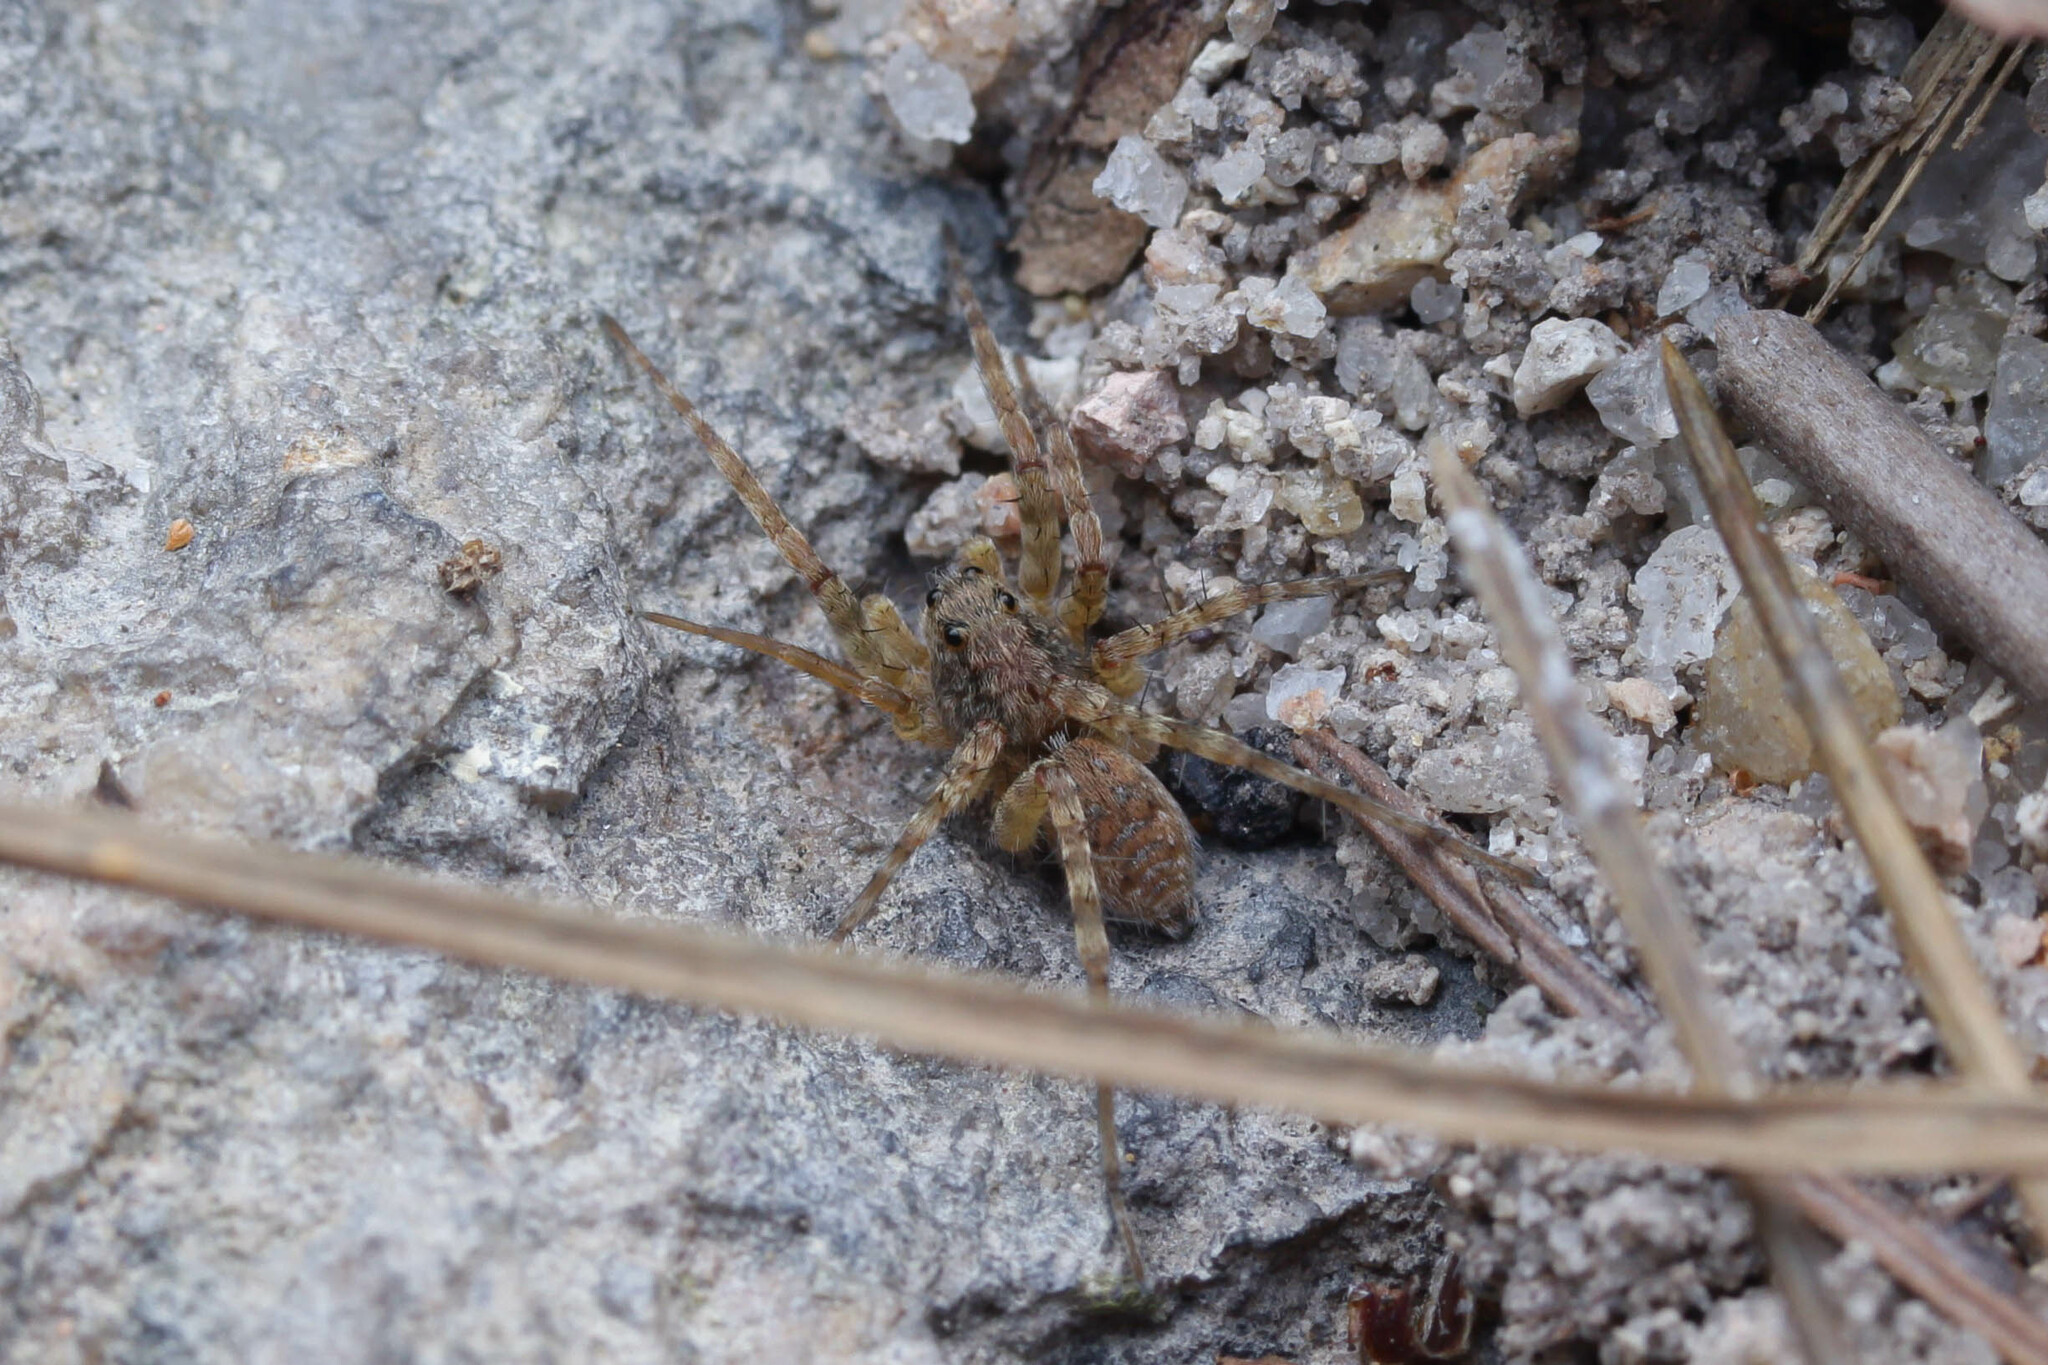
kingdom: Animalia
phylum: Arthropoda
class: Arachnida
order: Araneae
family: Lycosidae
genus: Wadicosa
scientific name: Wadicosa fidelis
